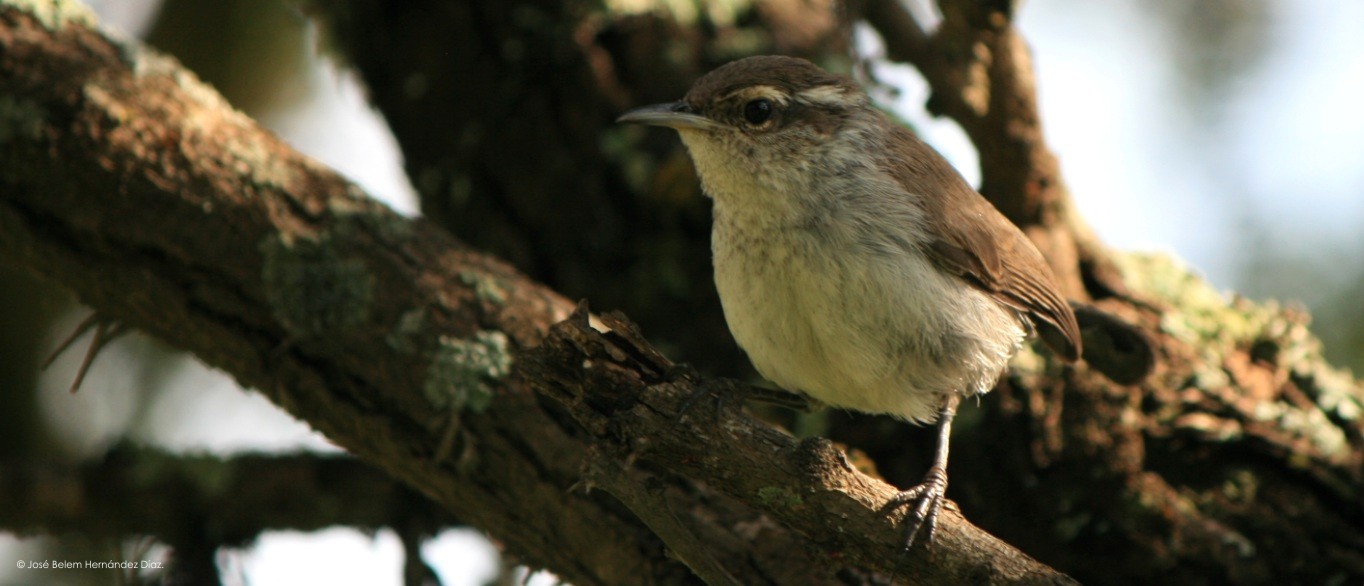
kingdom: Animalia
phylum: Chordata
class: Aves
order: Passeriformes
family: Troglodytidae
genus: Thryomanes
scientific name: Thryomanes bewickii
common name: Bewick's wren
